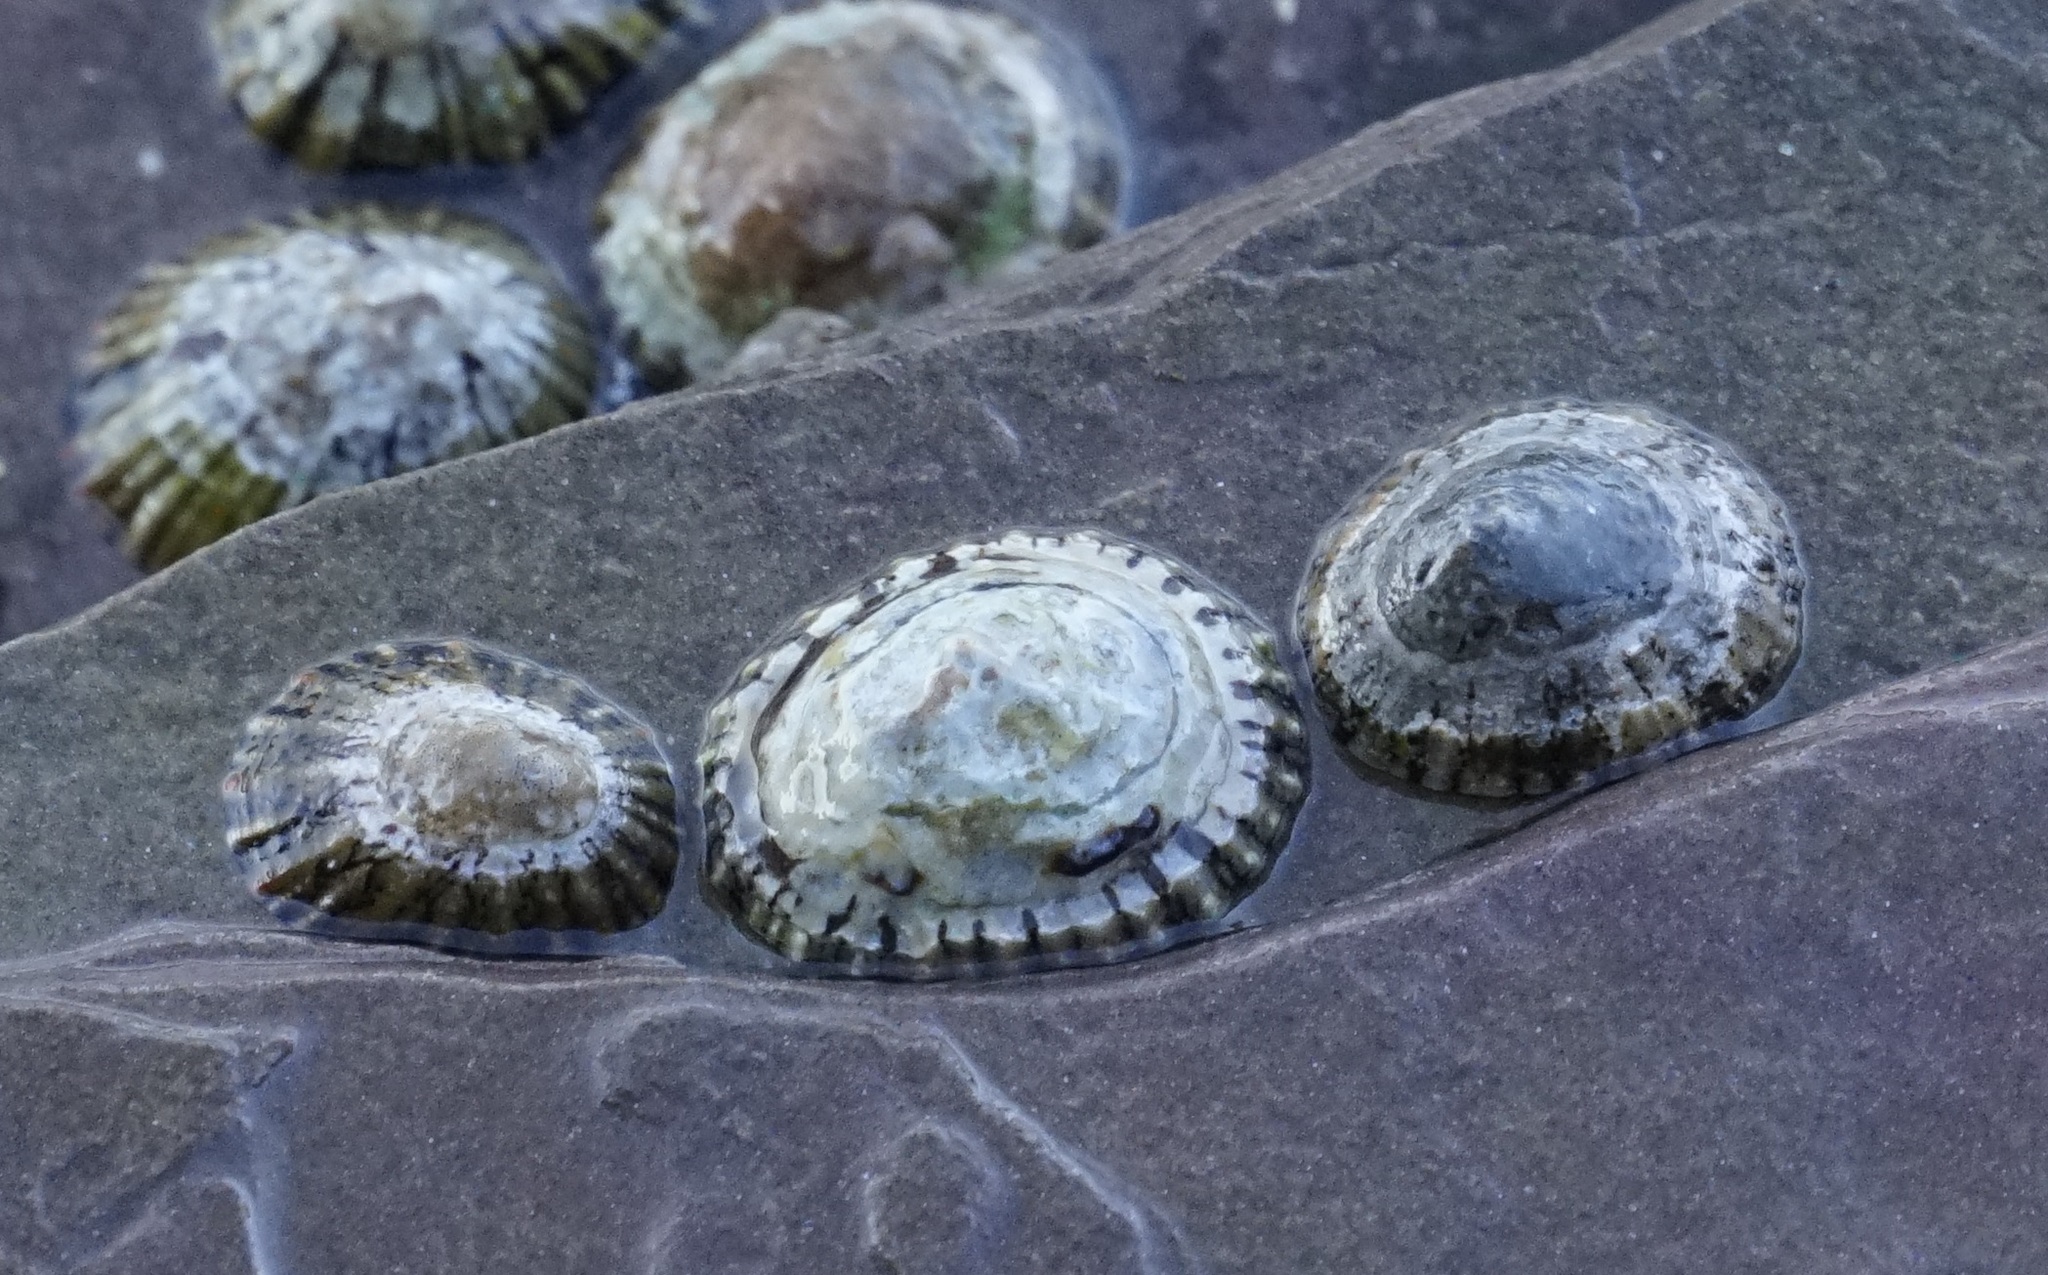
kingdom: Animalia
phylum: Mollusca
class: Gastropoda
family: Nacellidae
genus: Cellana
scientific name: Cellana tramoserica
